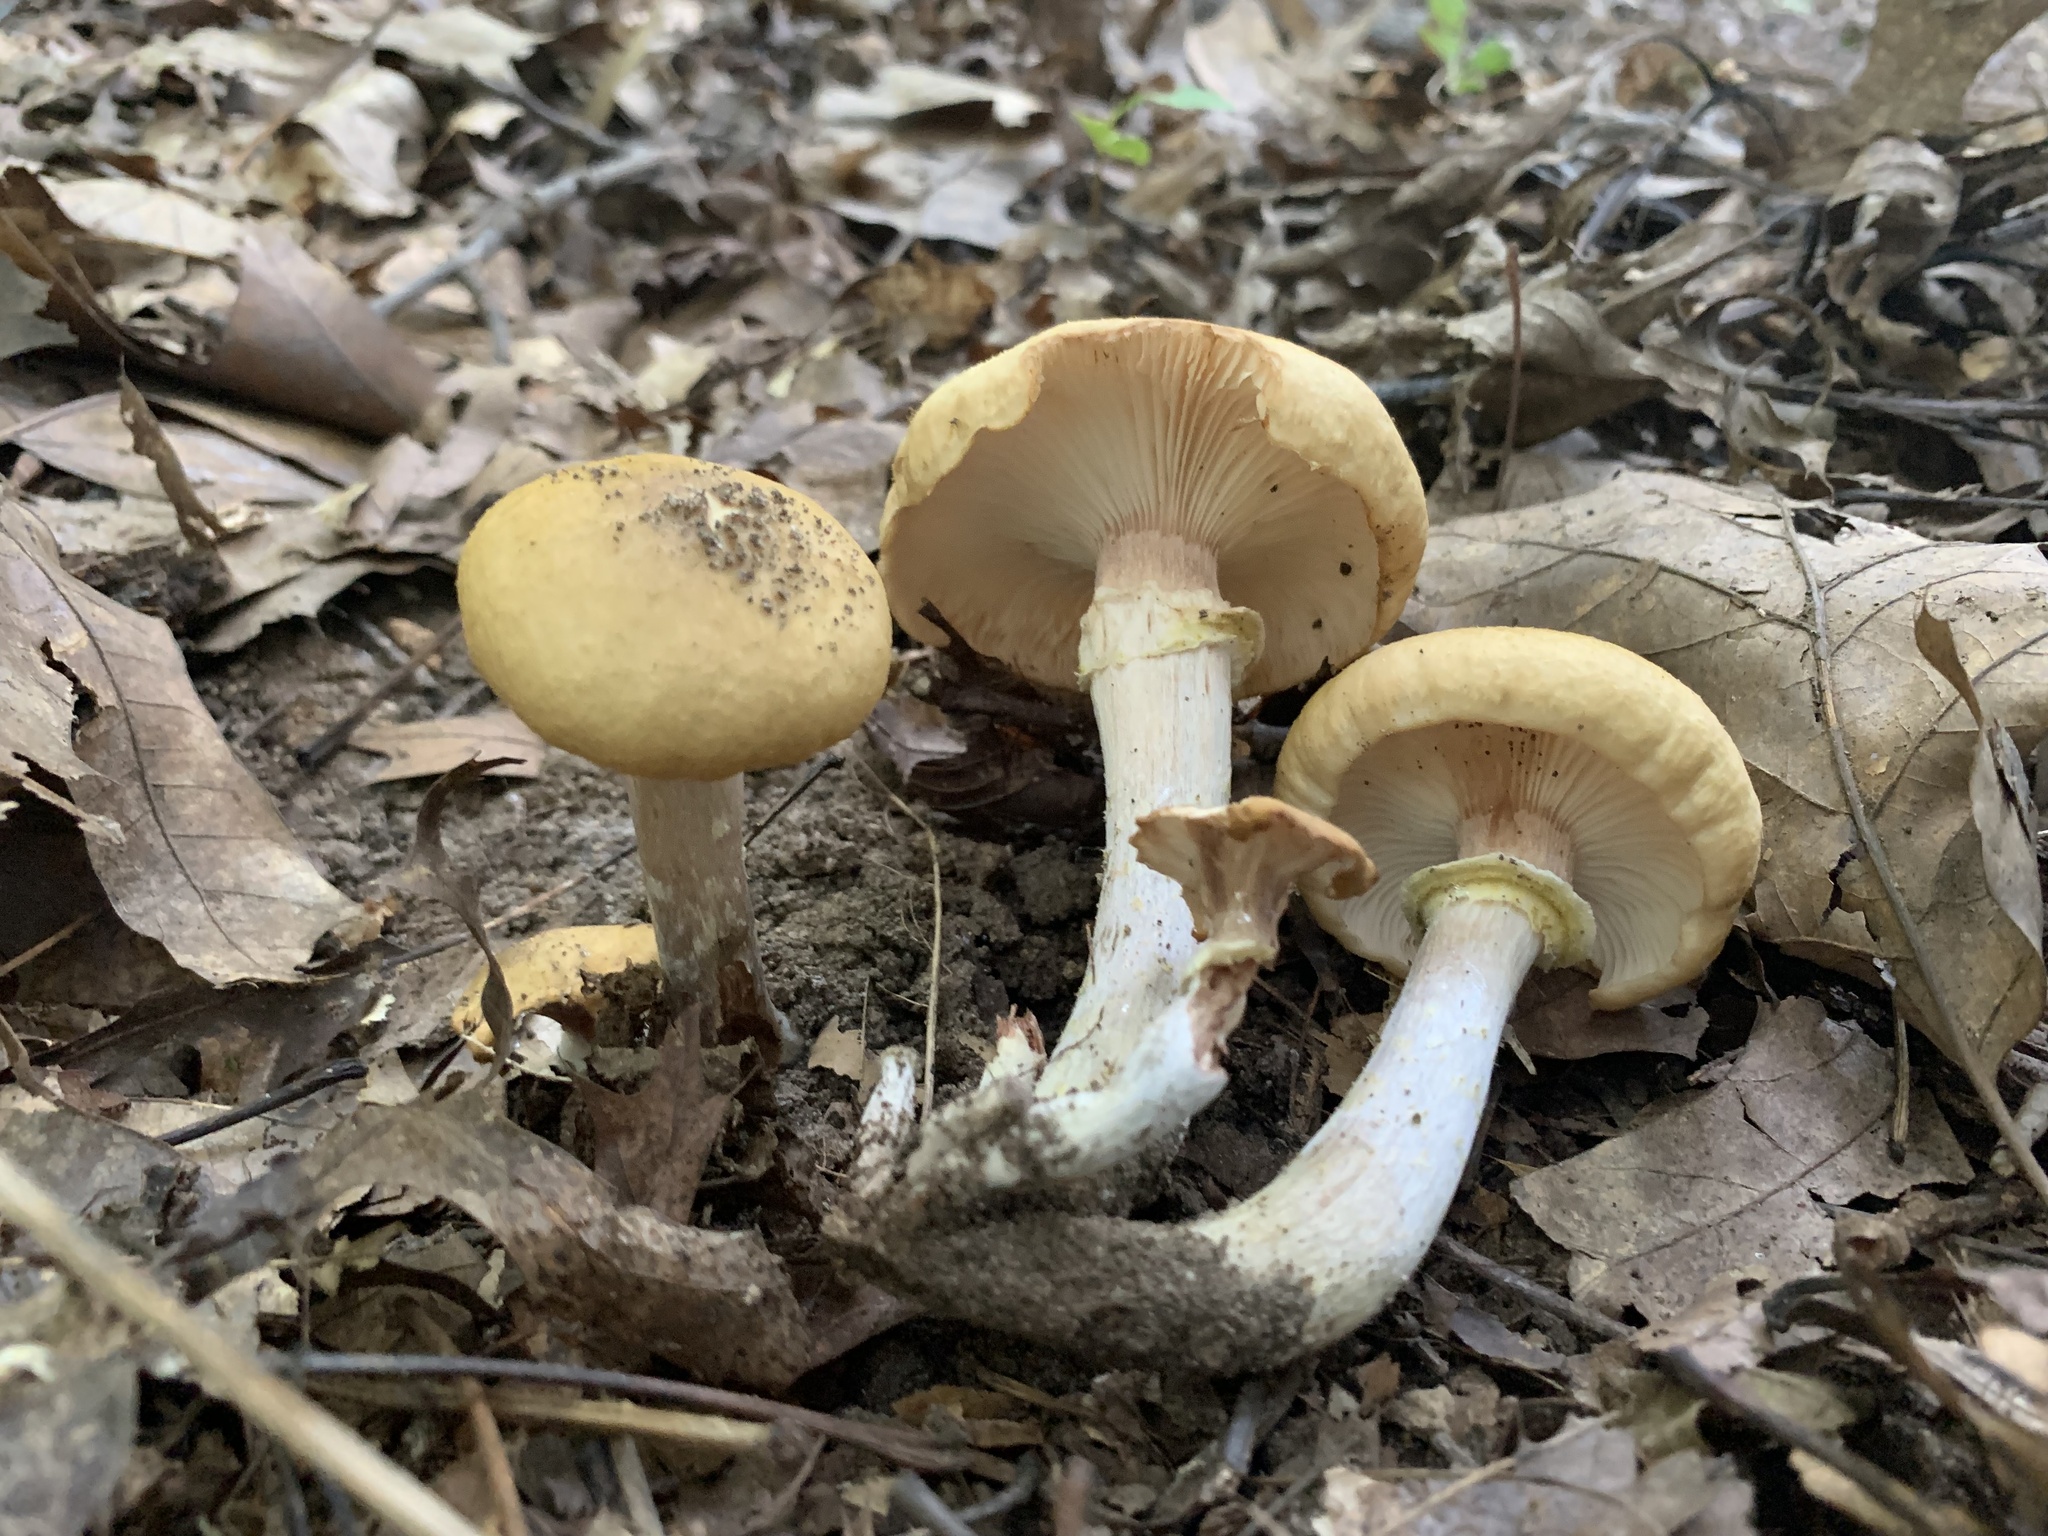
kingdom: Fungi
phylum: Basidiomycota
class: Agaricomycetes
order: Agaricales
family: Physalacriaceae
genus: Armillaria
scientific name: Armillaria mellea
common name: Honey fungus
